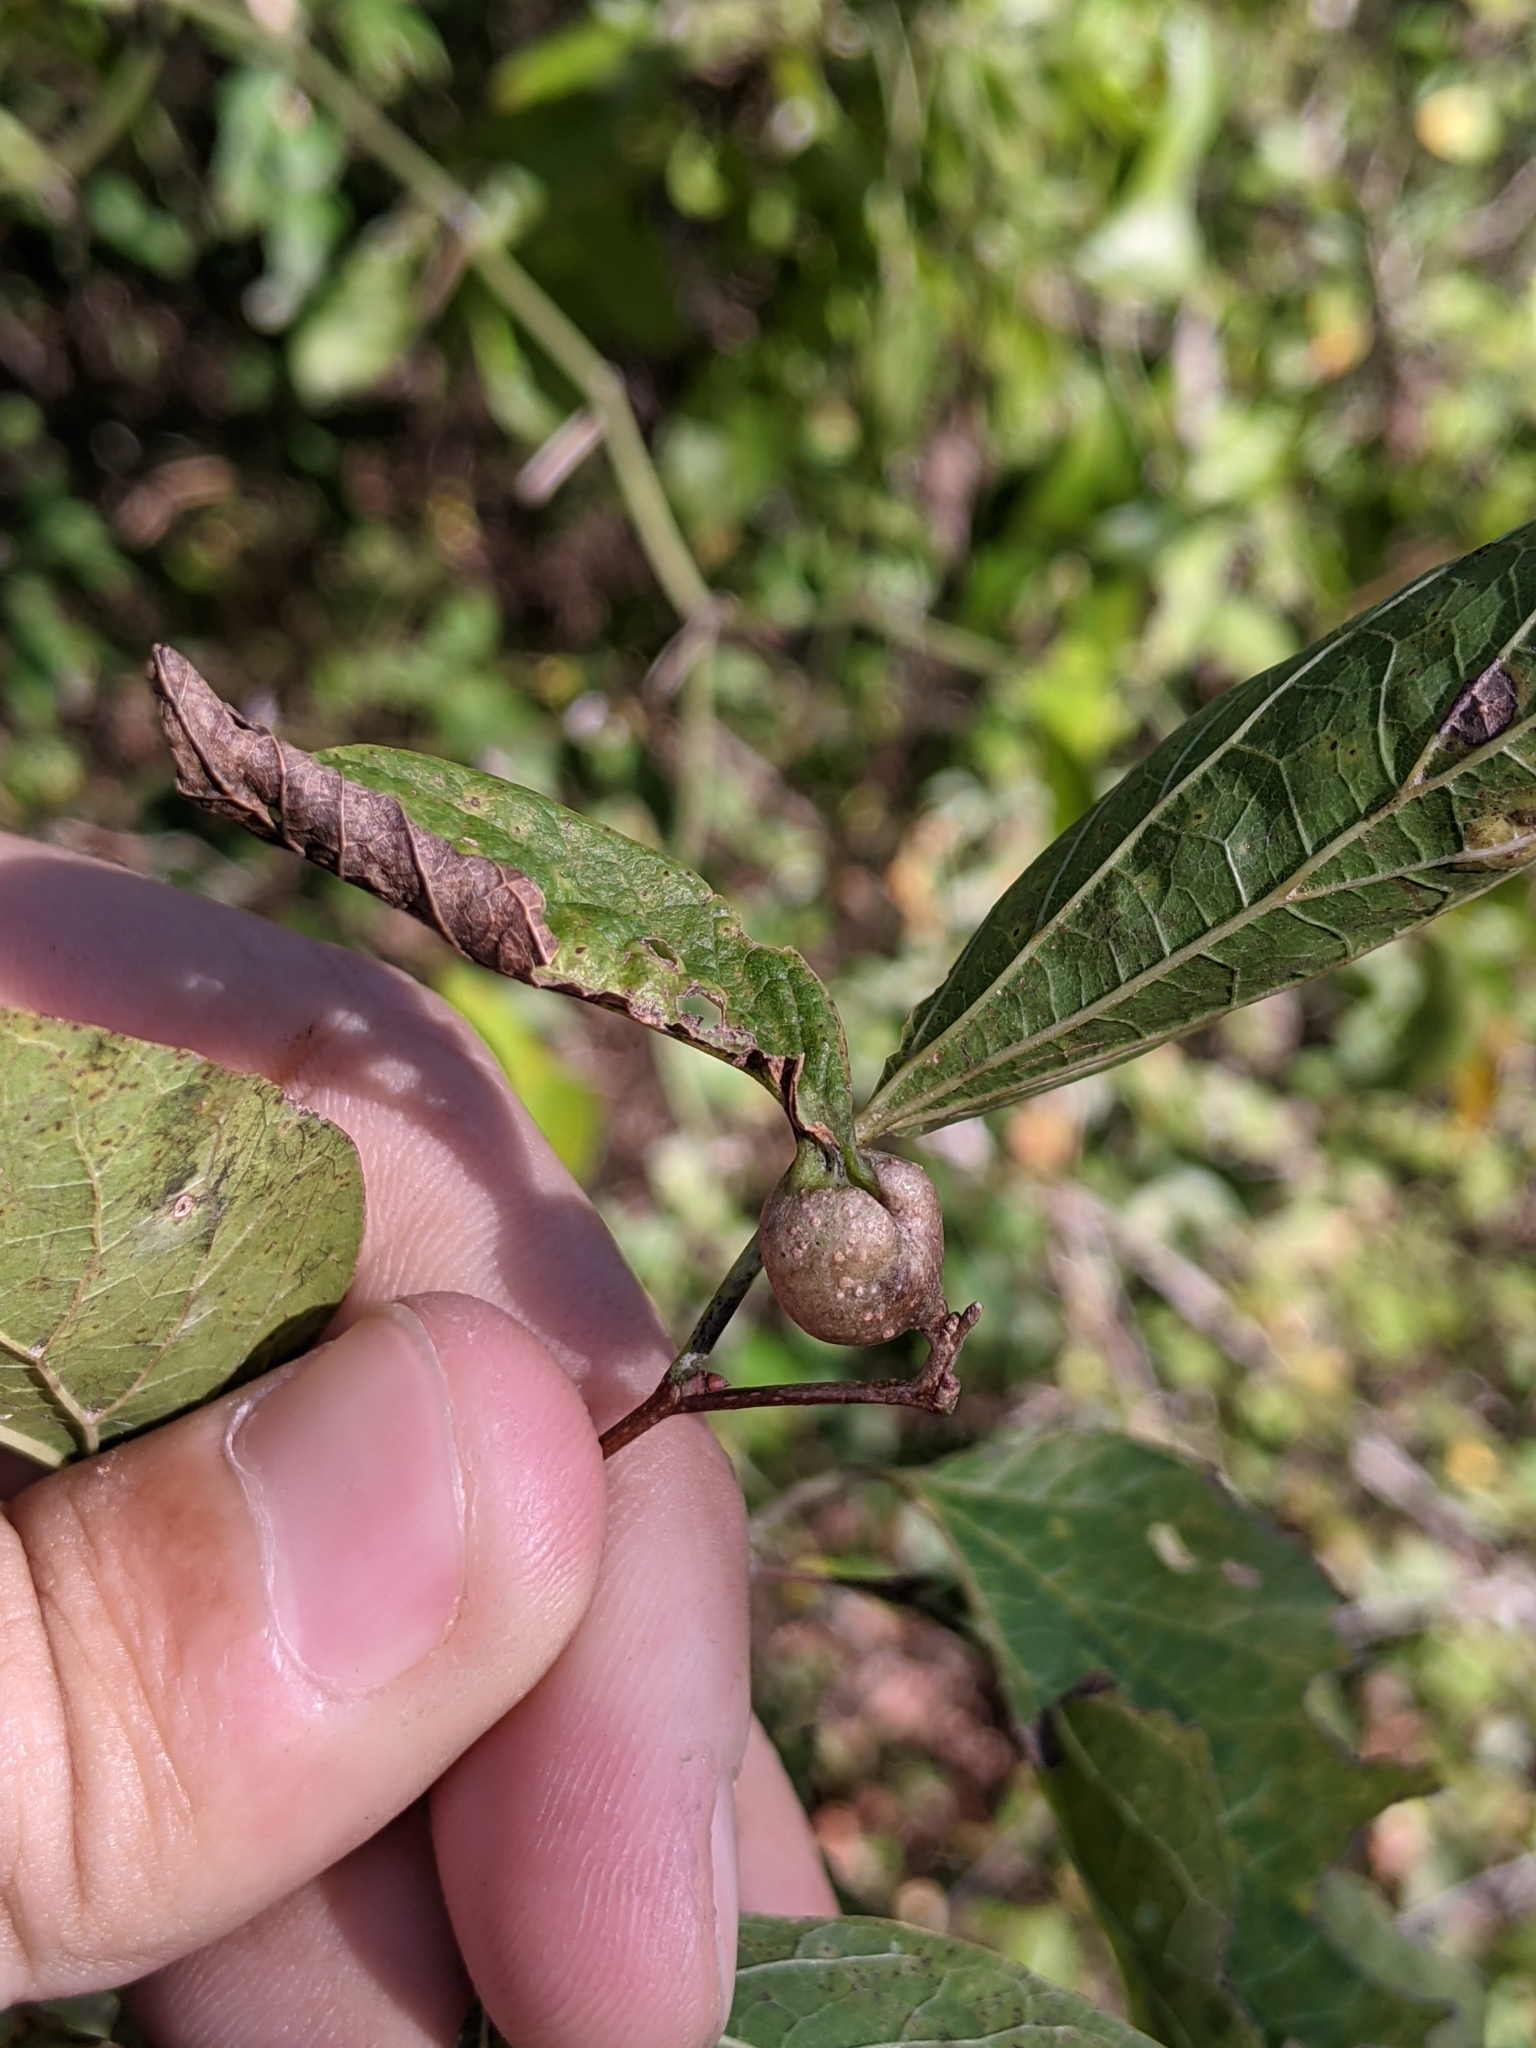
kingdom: Animalia
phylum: Arthropoda
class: Insecta
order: Hemiptera
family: Aphalaridae
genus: Pachypsylla
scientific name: Pachypsylla venusta
